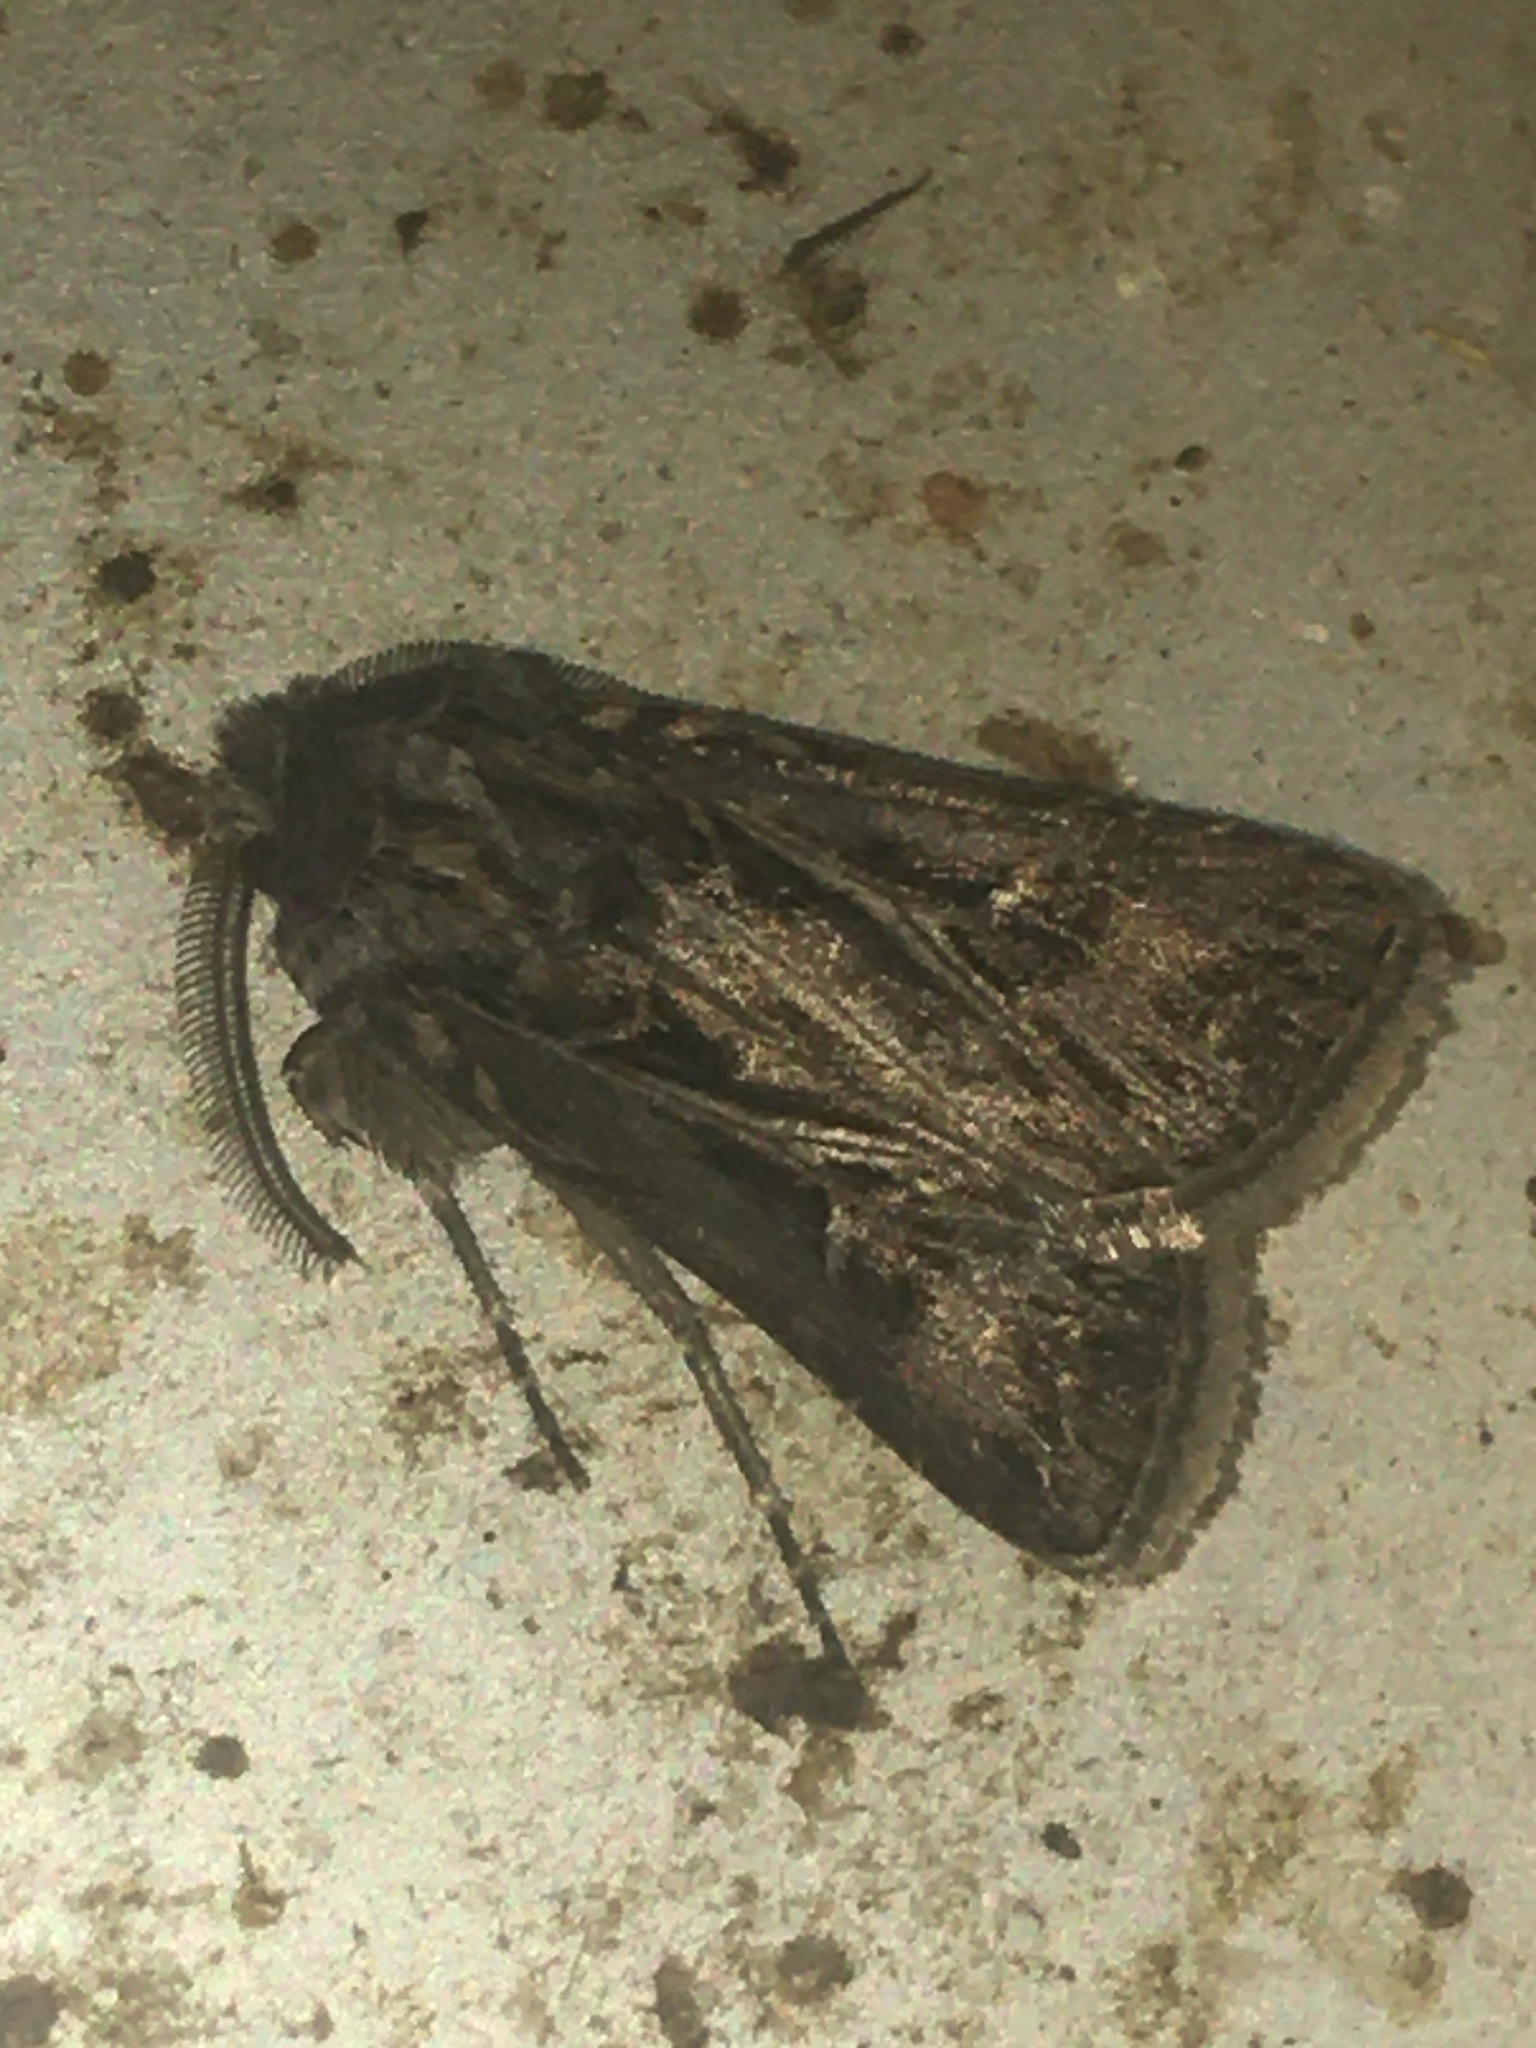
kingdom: Animalia
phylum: Arthropoda
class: Insecta
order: Lepidoptera
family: Noctuidae
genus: Agrotis
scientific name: Agrotis gladiaria
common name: Claybacked cutworm
